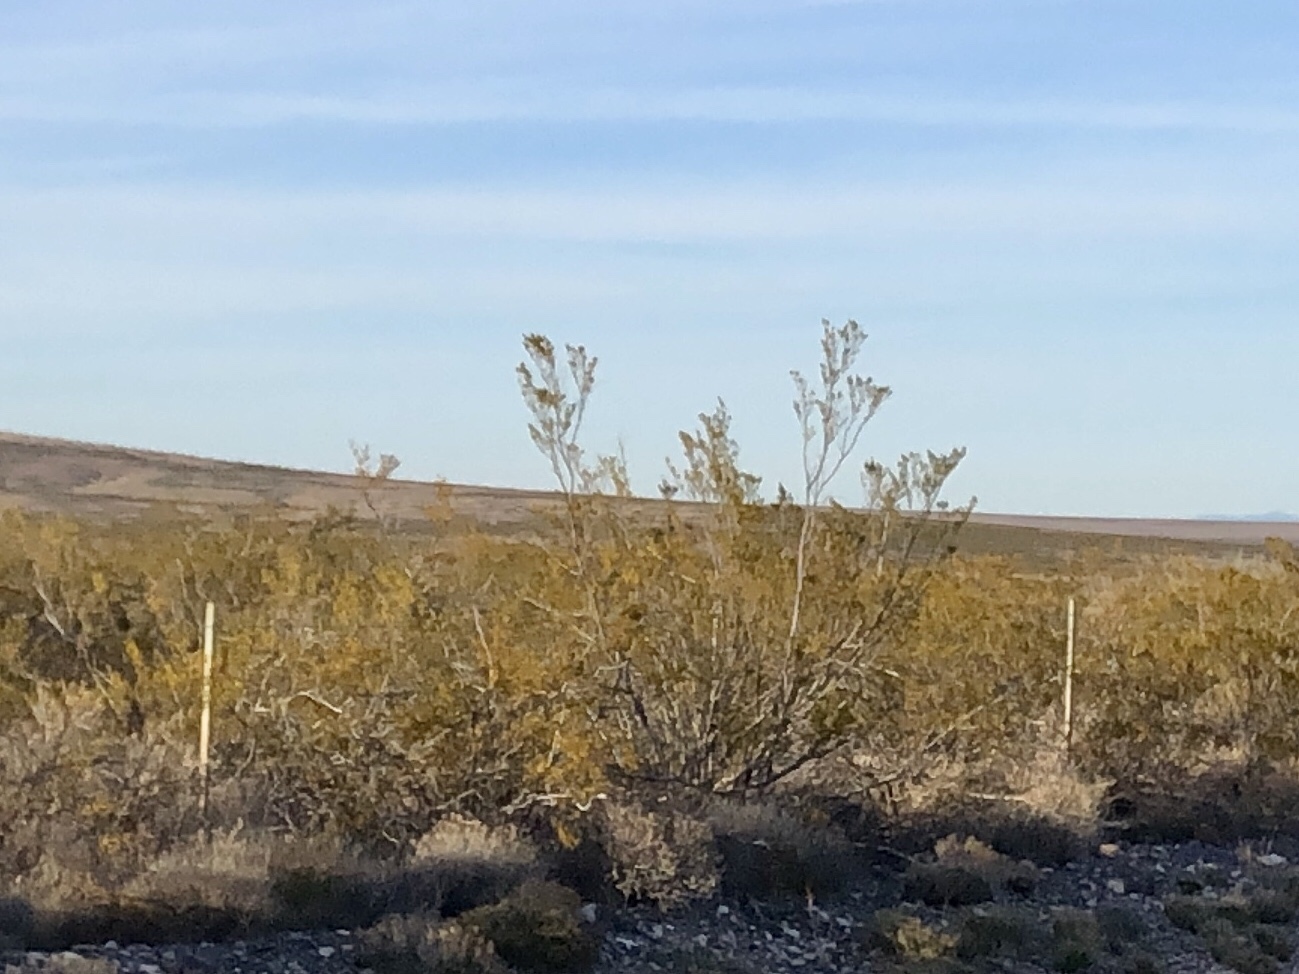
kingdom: Plantae
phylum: Tracheophyta
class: Magnoliopsida
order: Zygophyllales
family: Zygophyllaceae
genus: Larrea
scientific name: Larrea tridentata
